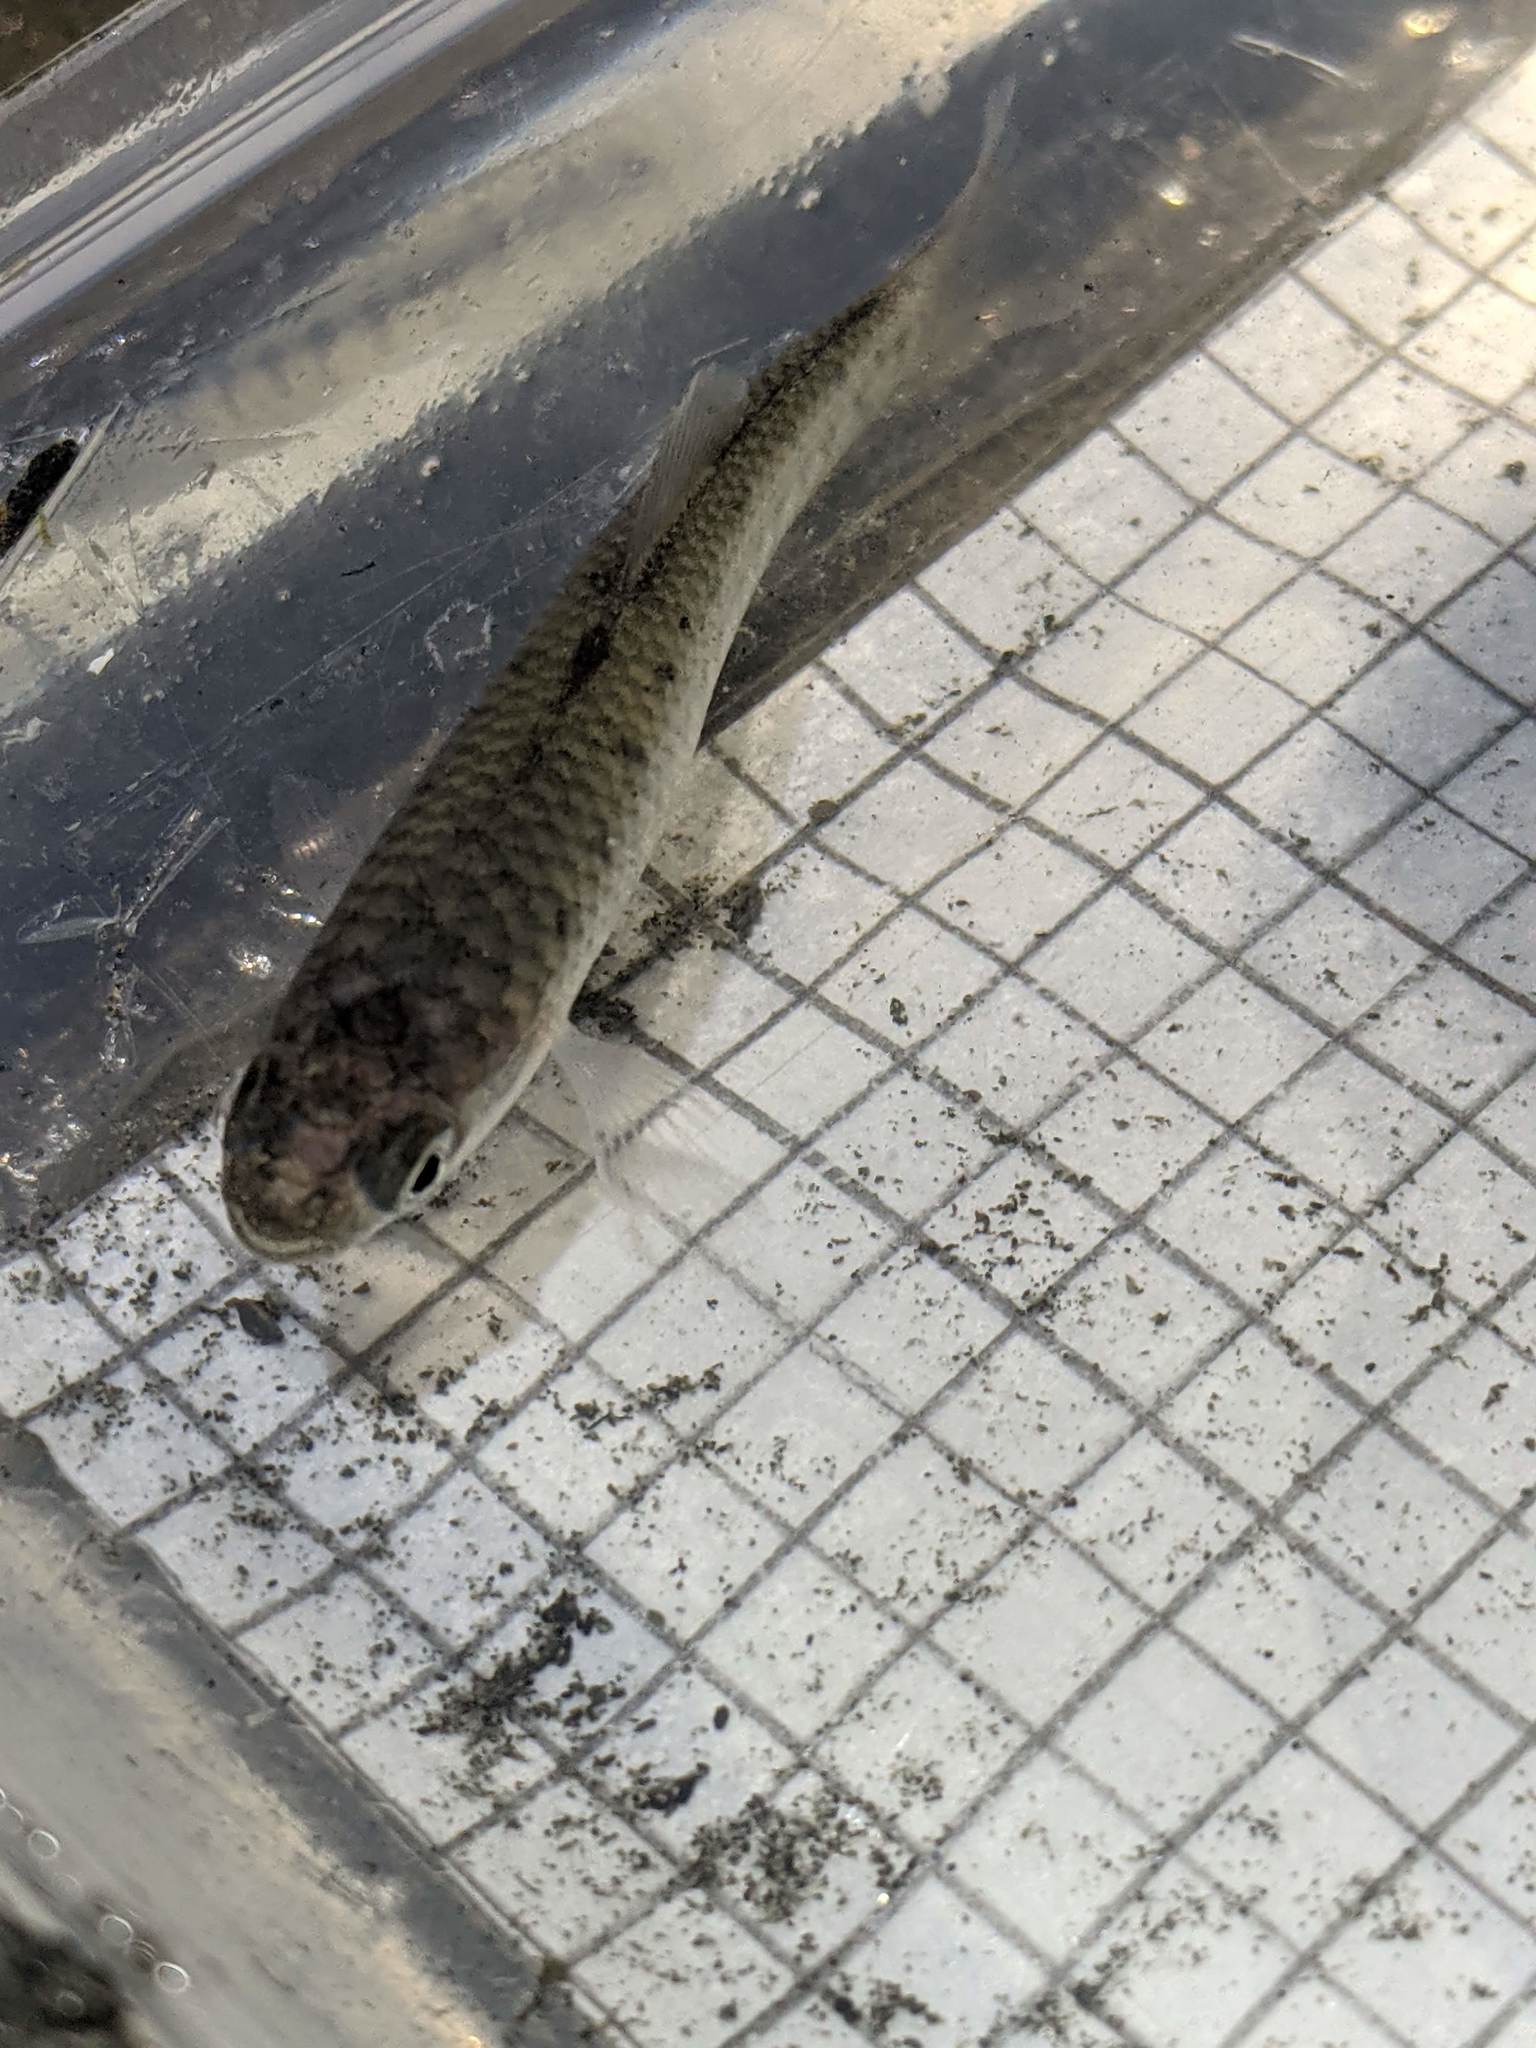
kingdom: Animalia
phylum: Chordata
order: Cyprinodontiformes
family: Fundulidae
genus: Fundulus
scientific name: Fundulus parvipinnis
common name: California killifish
